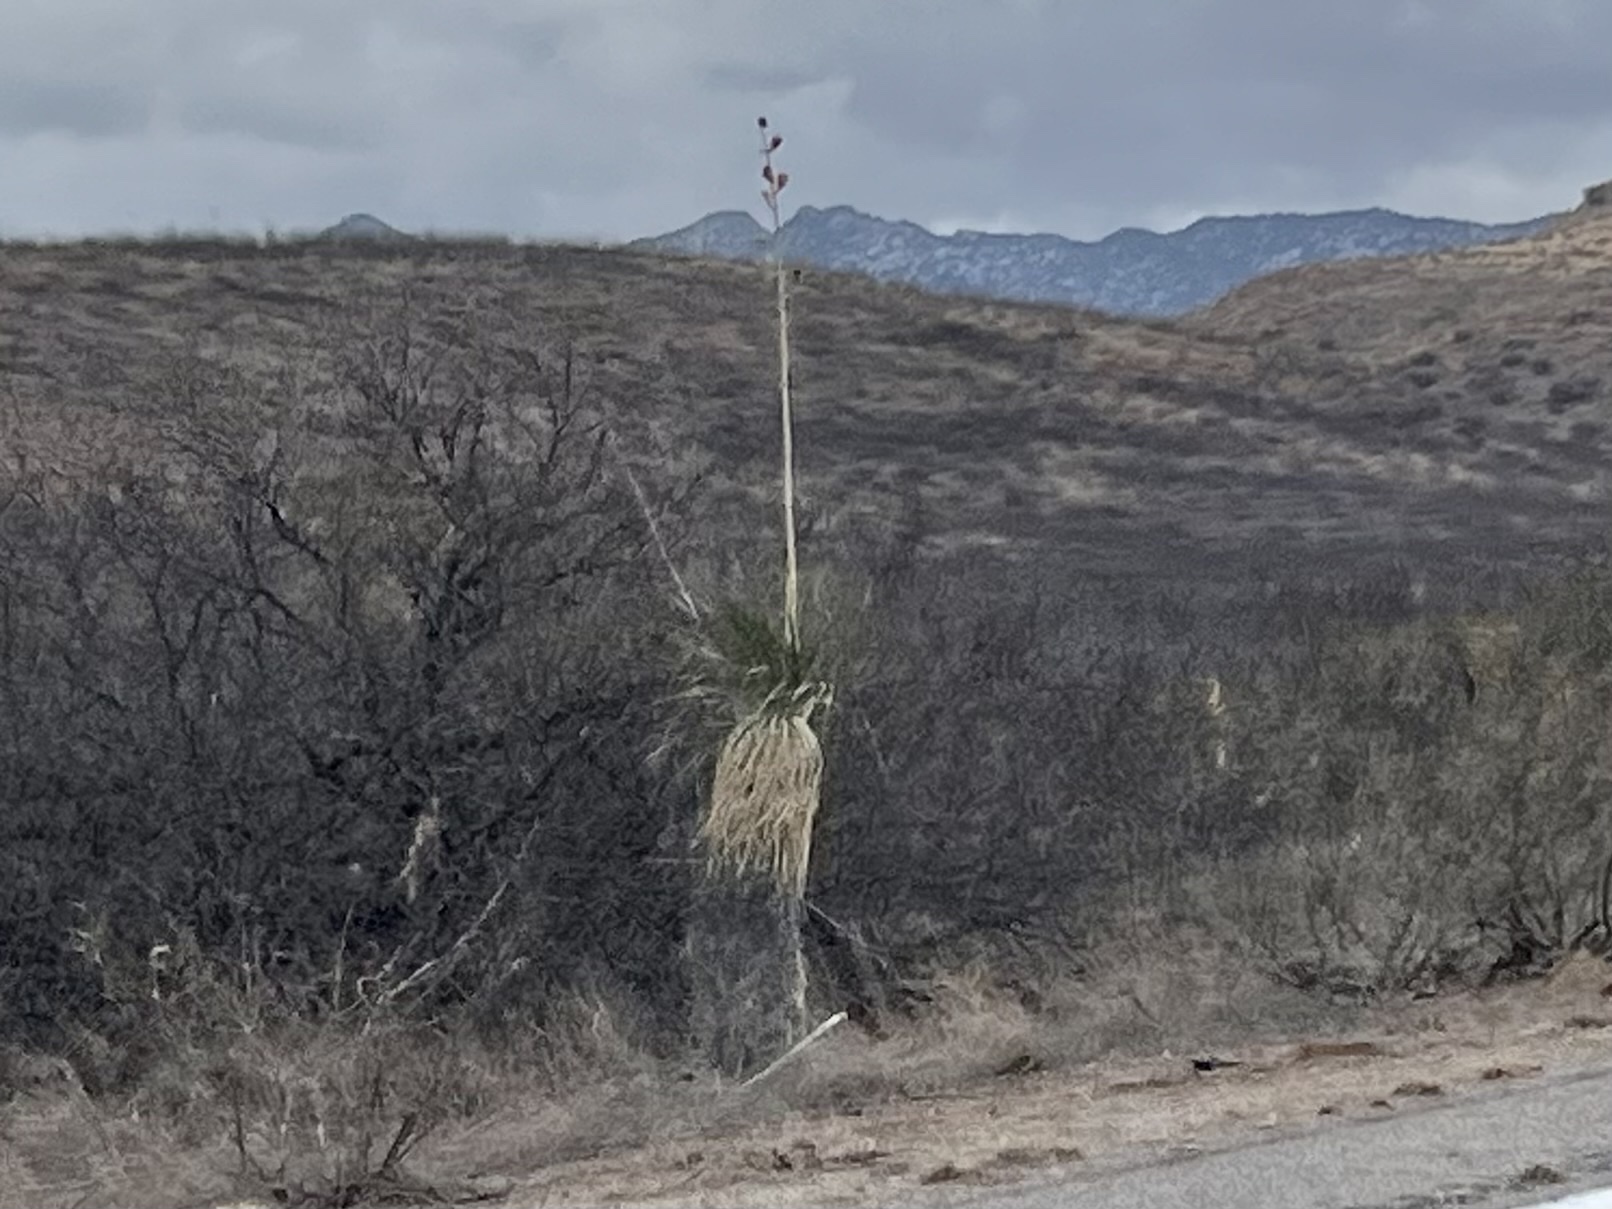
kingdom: Plantae
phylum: Tracheophyta
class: Liliopsida
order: Asparagales
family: Asparagaceae
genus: Yucca
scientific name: Yucca elata
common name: Palmella
